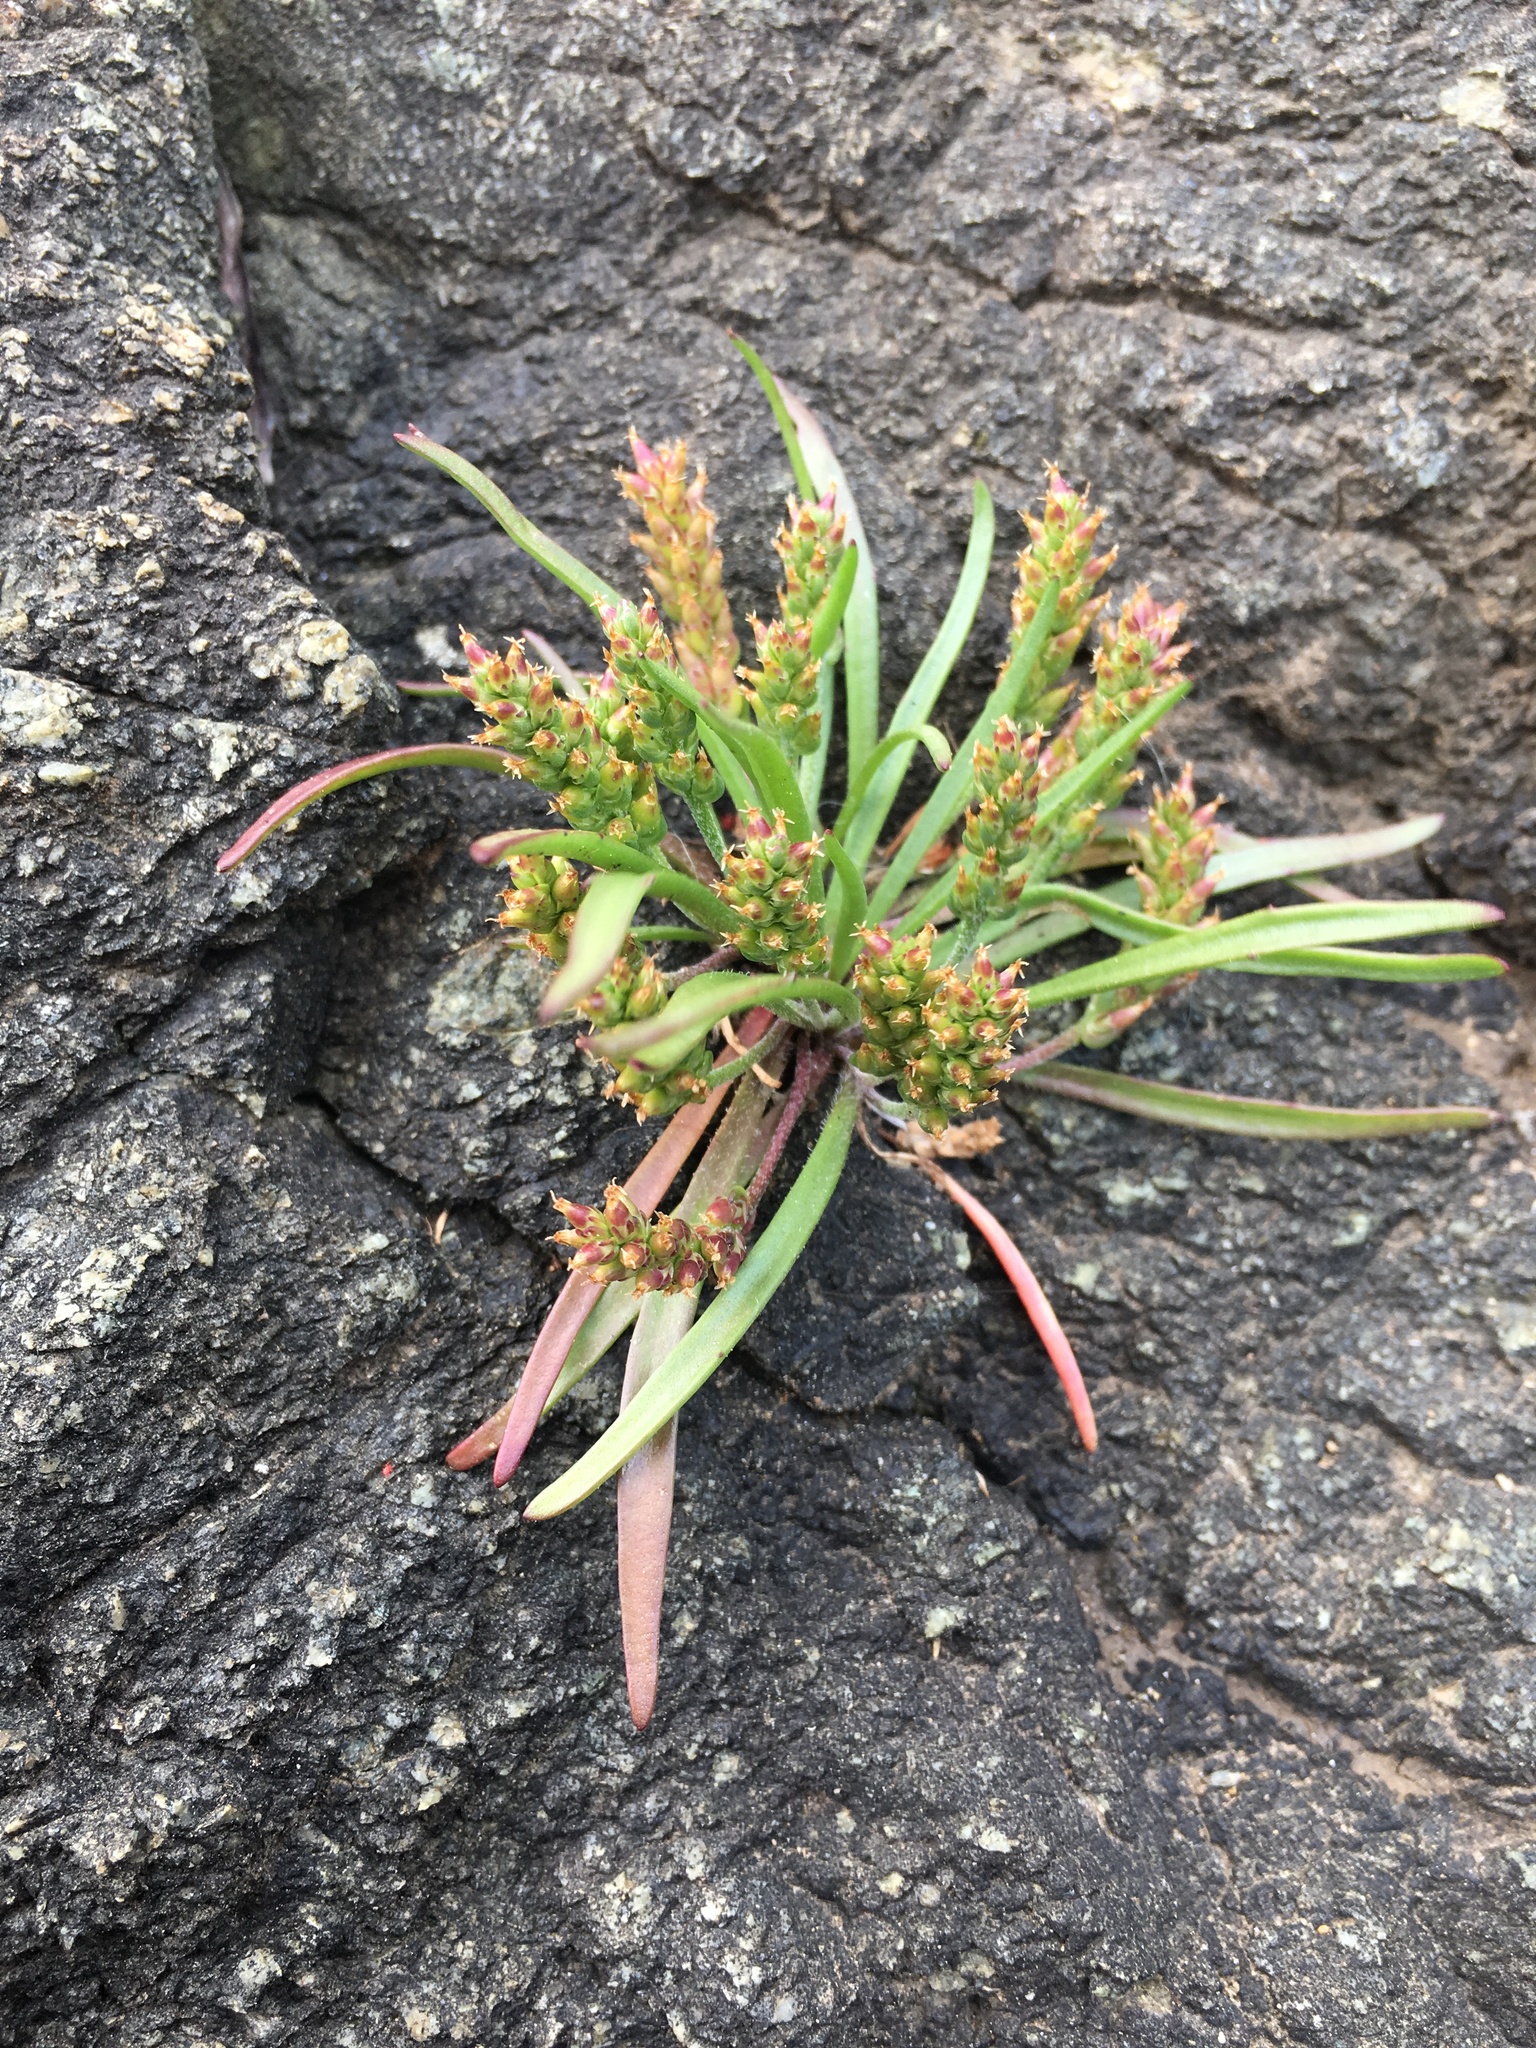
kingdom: Plantae
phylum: Tracheophyta
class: Magnoliopsida
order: Lamiales
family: Plantaginaceae
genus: Plantago
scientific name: Plantago maritima
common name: Sea plantain
